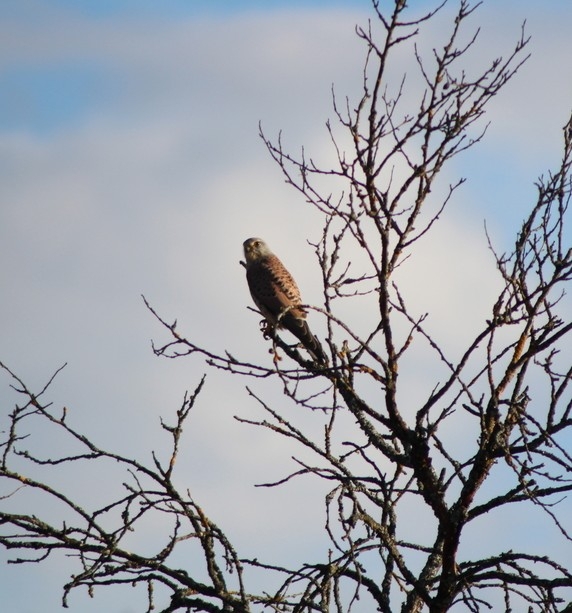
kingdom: Animalia
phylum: Chordata
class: Aves
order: Falconiformes
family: Falconidae
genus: Falco
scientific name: Falco tinnunculus
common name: Common kestrel
